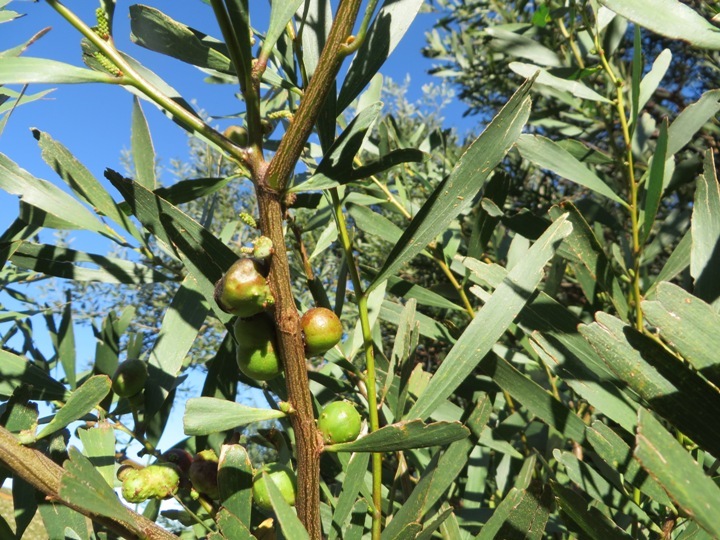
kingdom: Animalia
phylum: Arthropoda
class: Insecta
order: Hymenoptera
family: Pteromalidae
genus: Trichilogaster
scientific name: Trichilogaster signiventris
